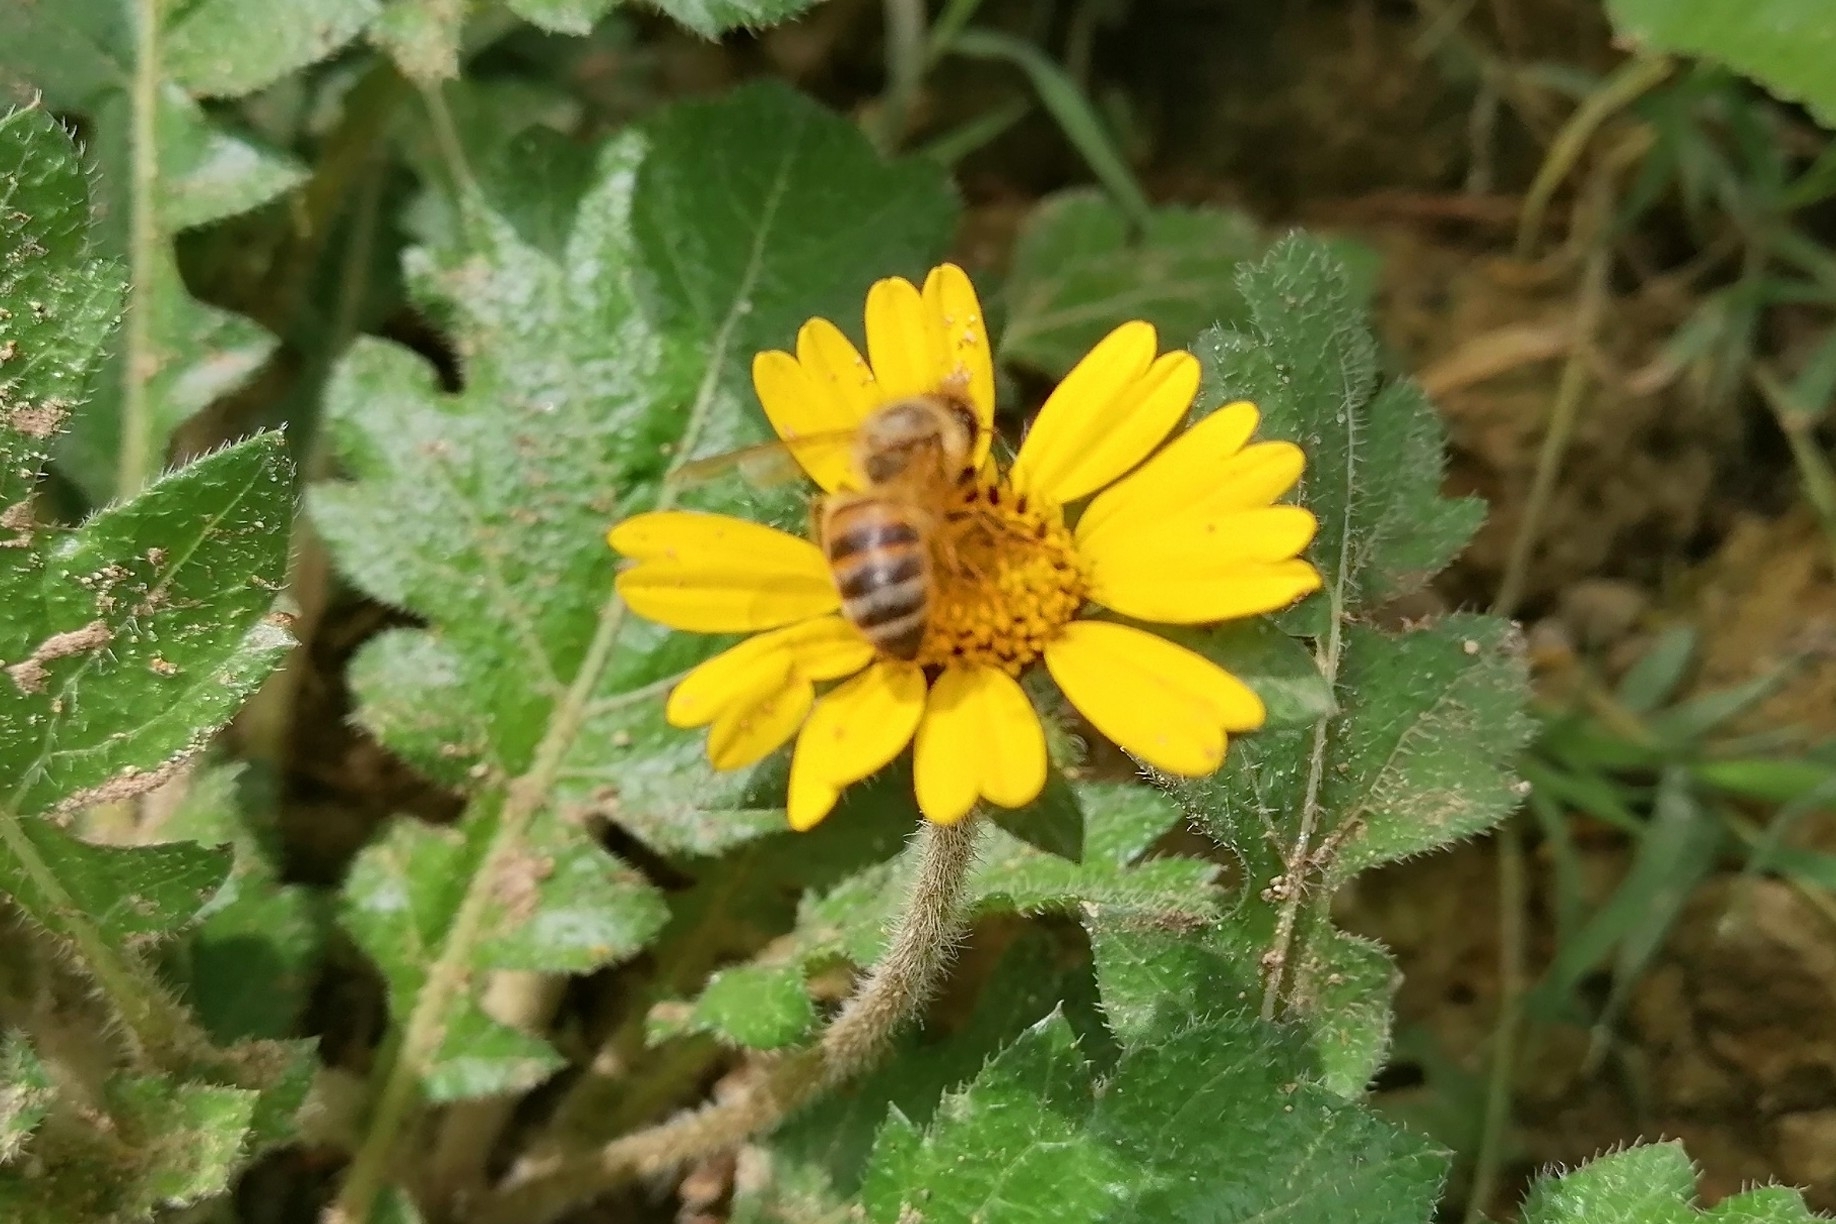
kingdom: Animalia
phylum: Arthropoda
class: Insecta
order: Hymenoptera
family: Apidae
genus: Apis
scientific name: Apis mellifera
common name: Honey bee
